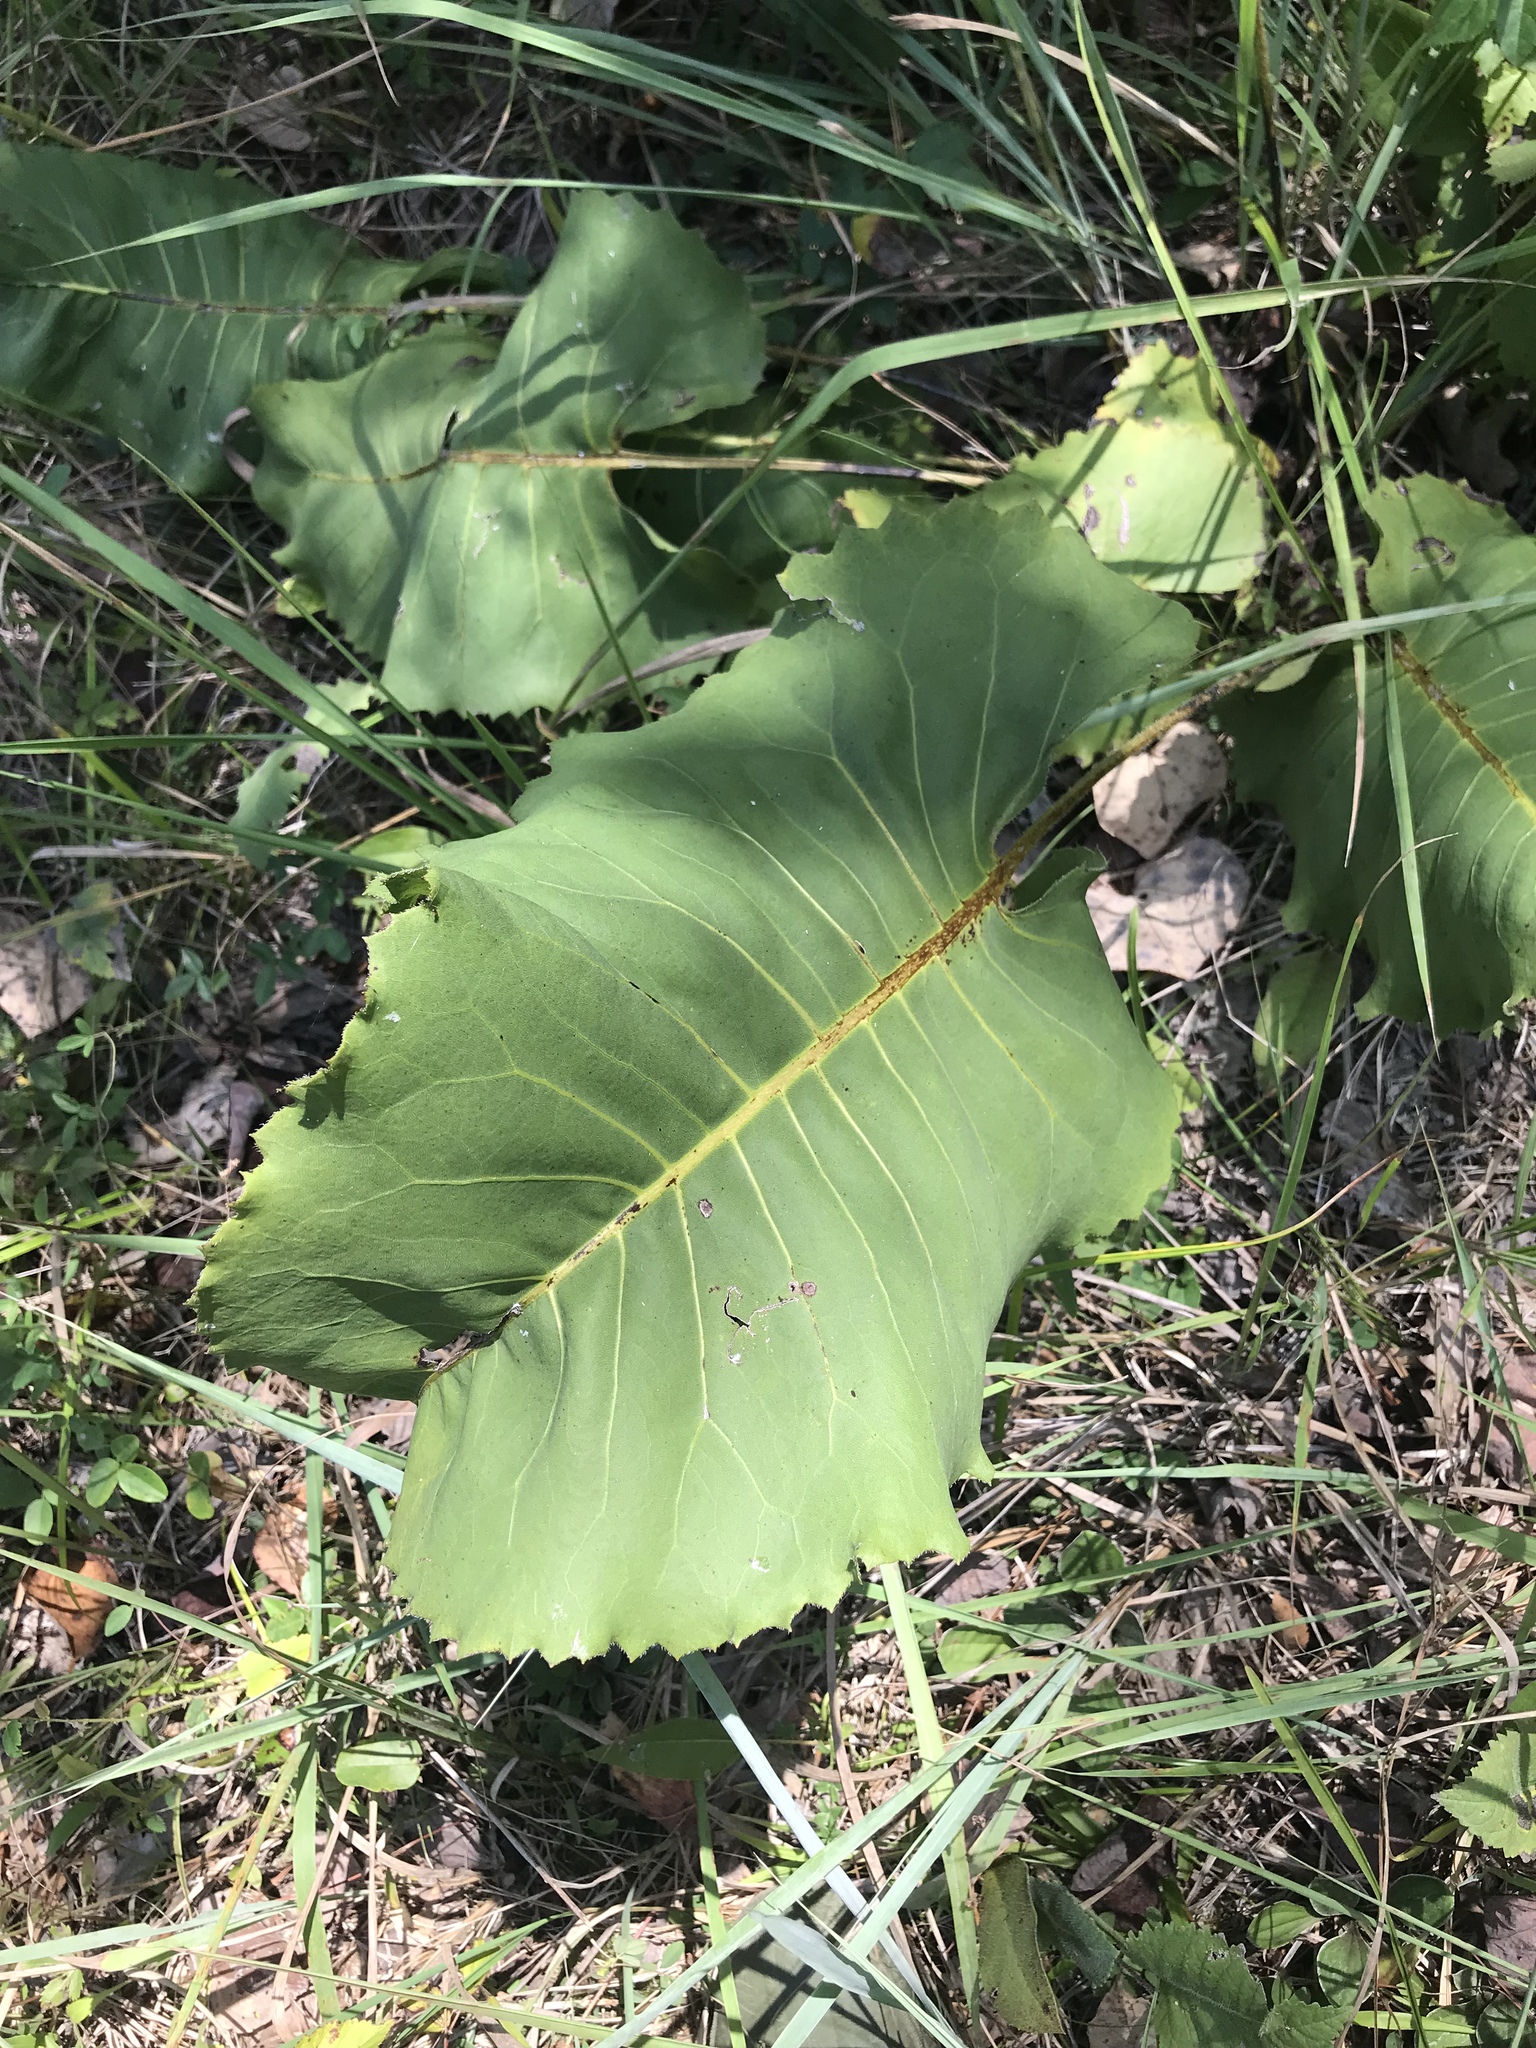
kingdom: Plantae
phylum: Tracheophyta
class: Magnoliopsida
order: Asterales
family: Asteraceae
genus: Silphium
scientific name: Silphium terebinthinaceum
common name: Basal-leaf rosinweed
